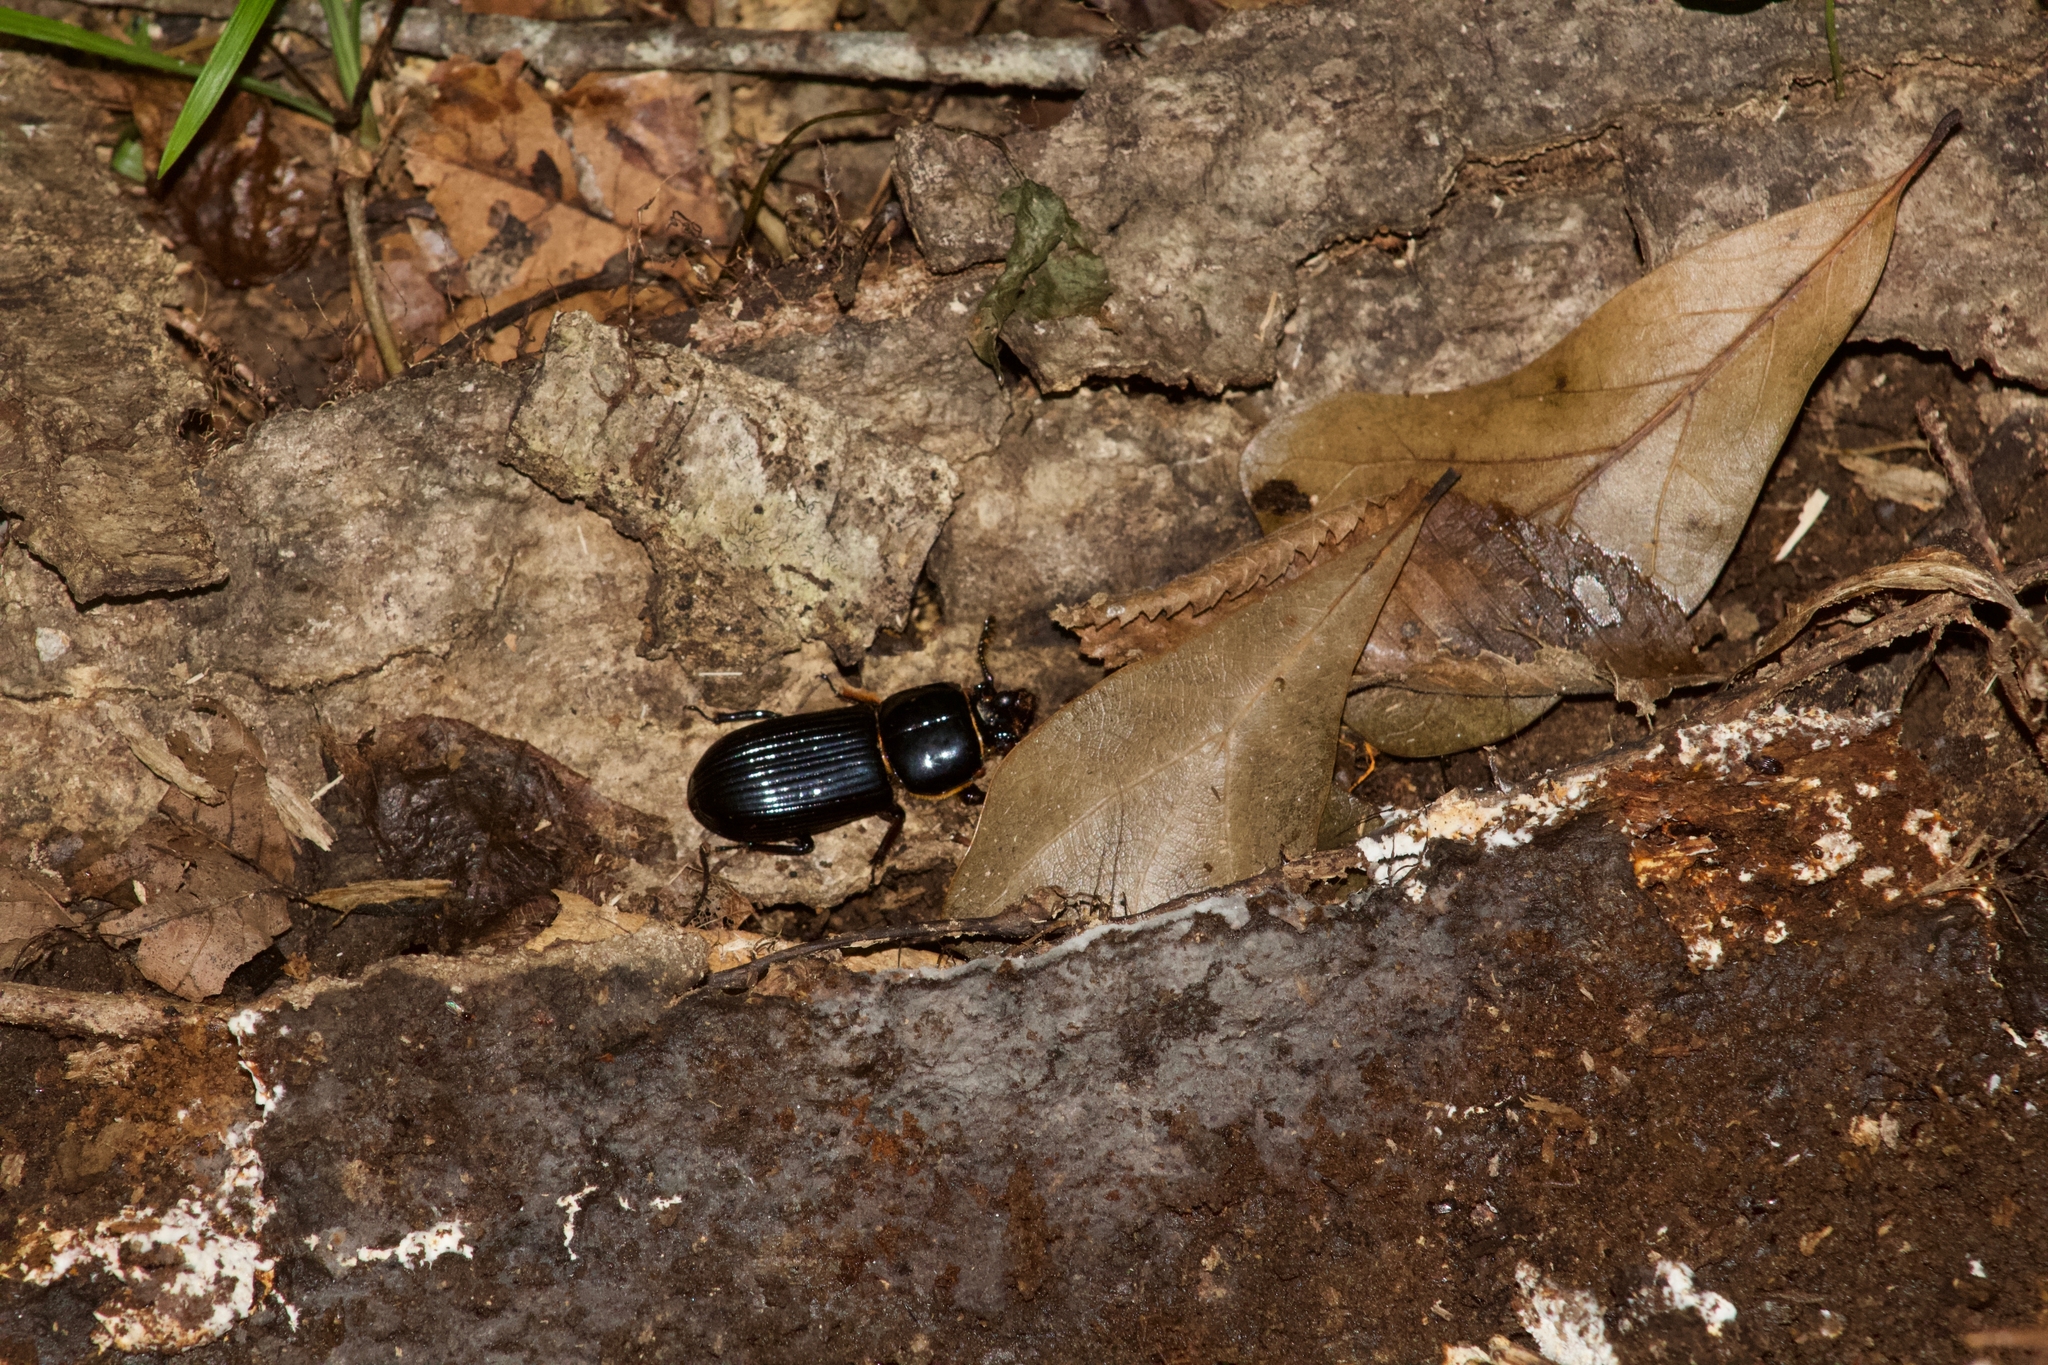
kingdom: Animalia
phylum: Arthropoda
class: Insecta
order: Coleoptera
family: Passalidae
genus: Odontotaenius
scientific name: Odontotaenius disjunctus
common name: Patent leather beetle
